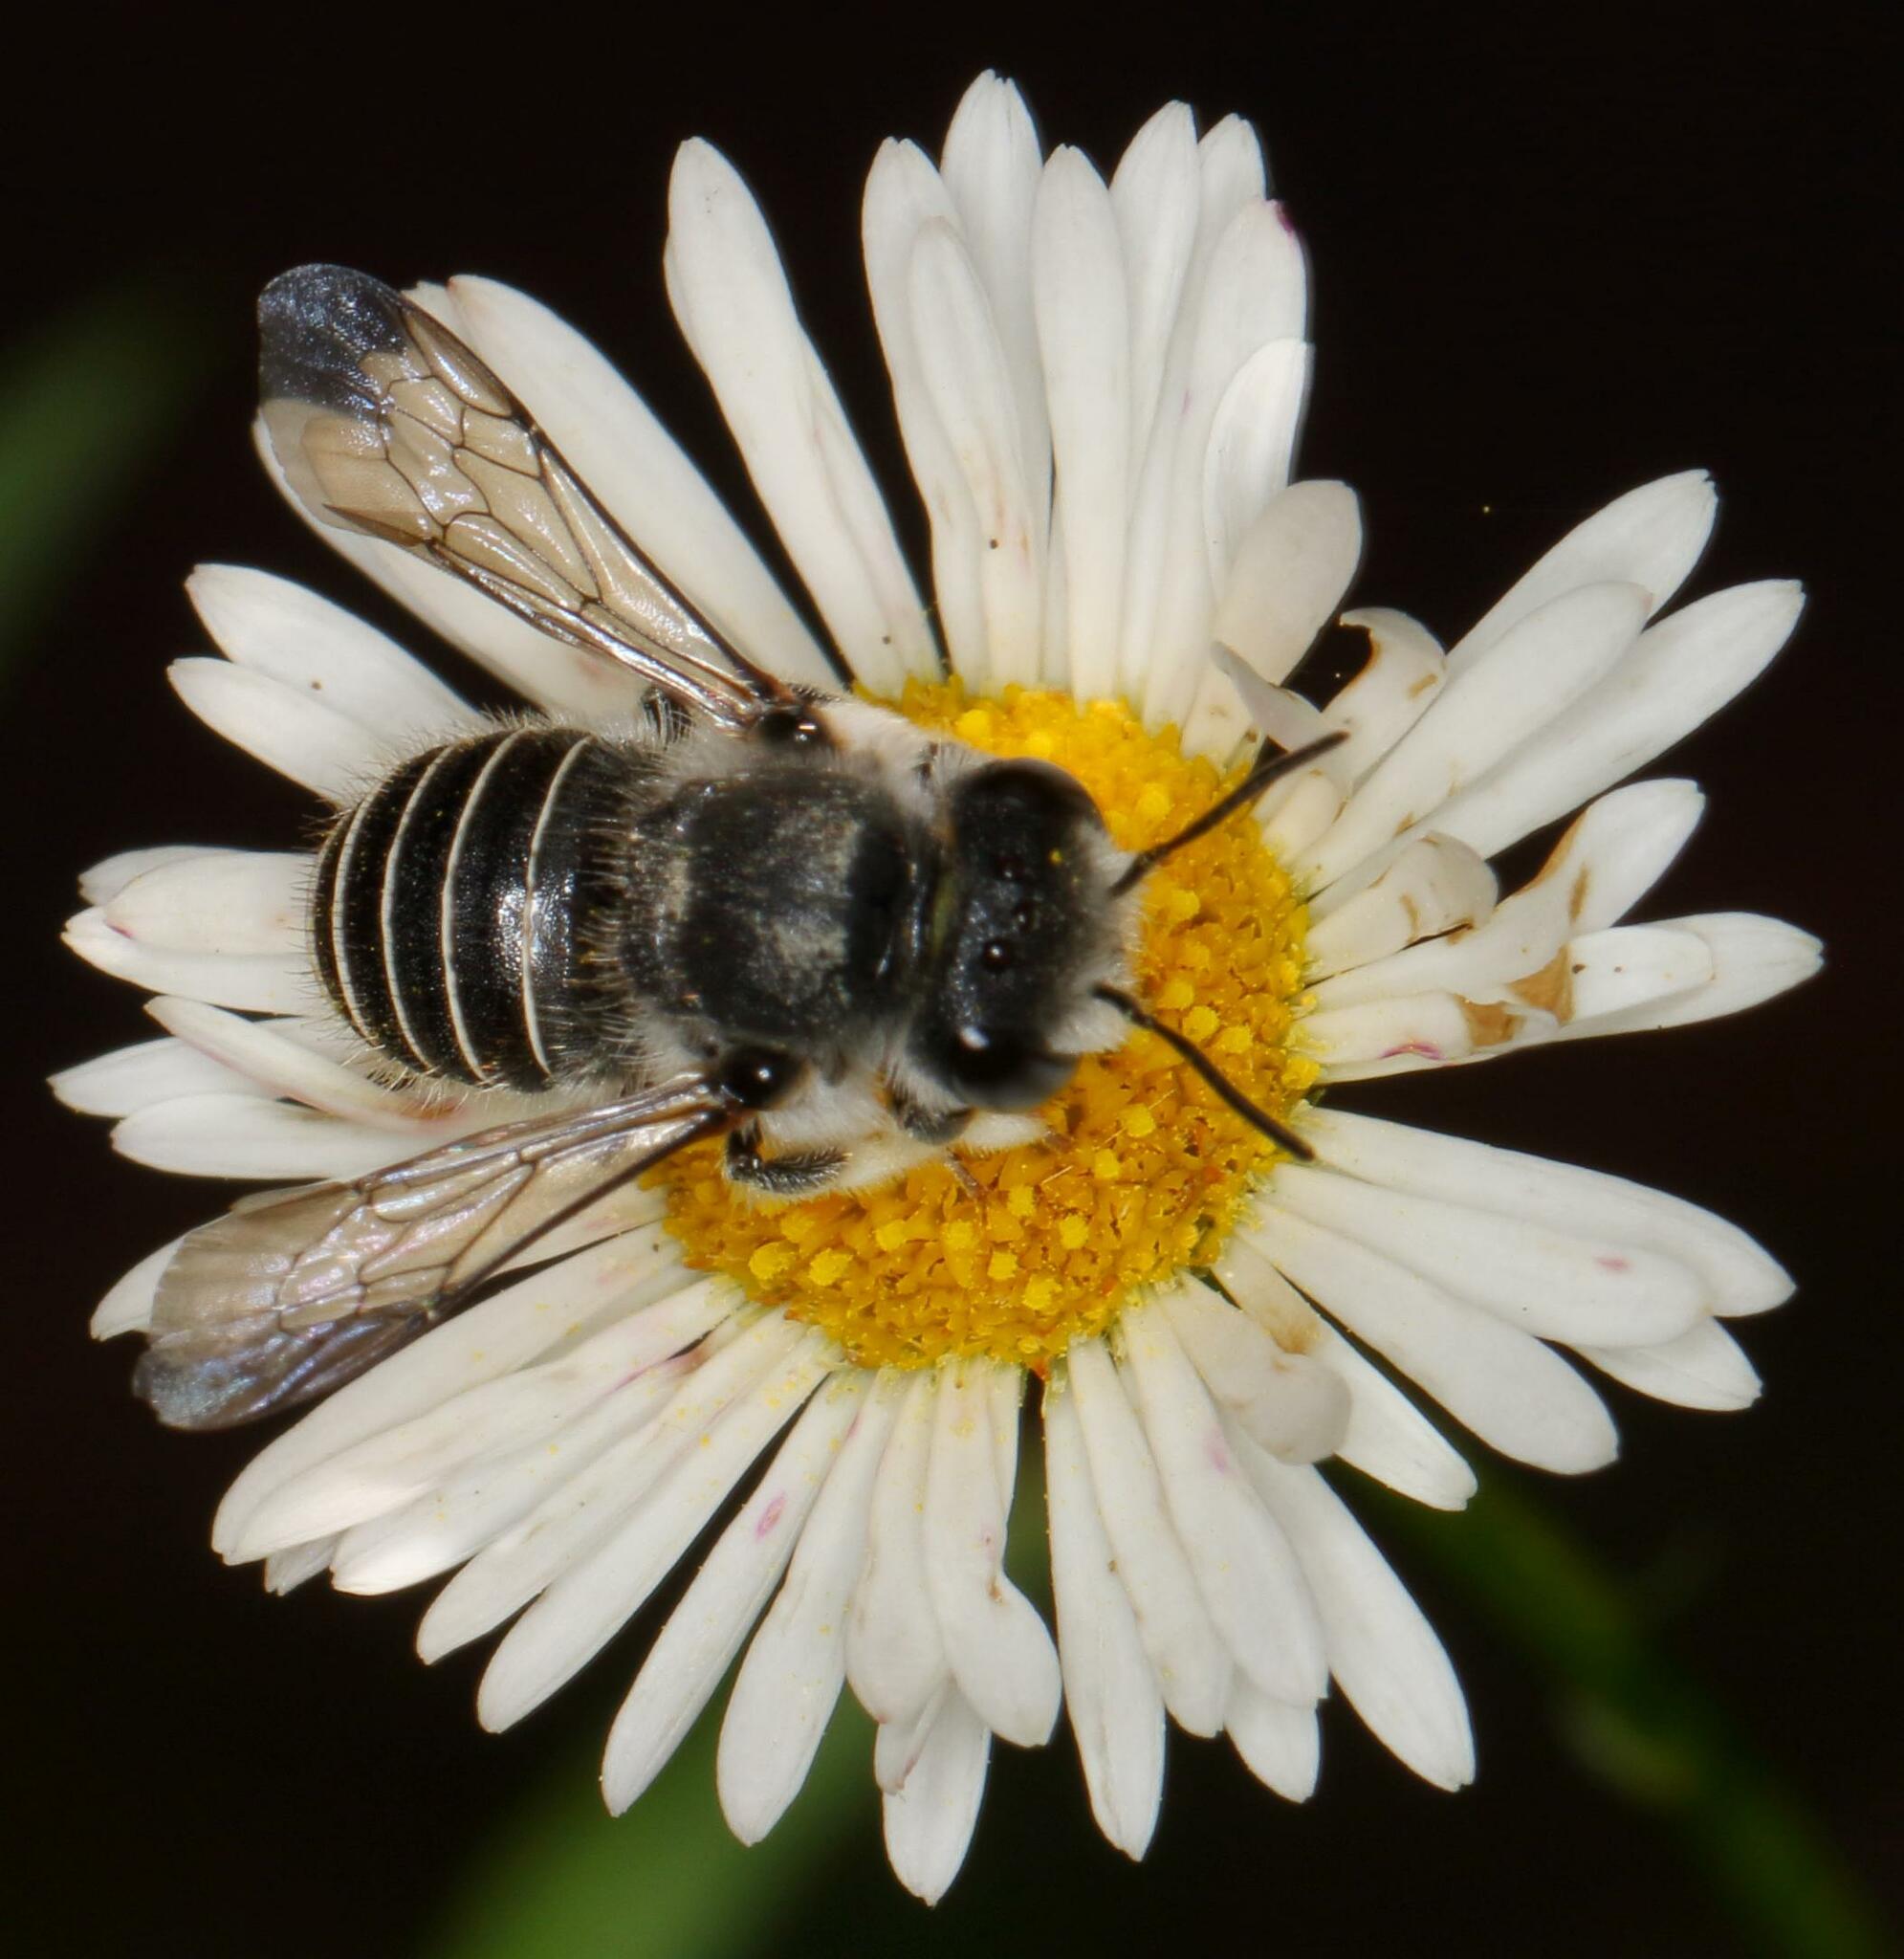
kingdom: Animalia
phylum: Arthropoda
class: Insecta
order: Hymenoptera
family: Megachilidae
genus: Pseudoanthidium
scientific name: Pseudoanthidium repetitum
